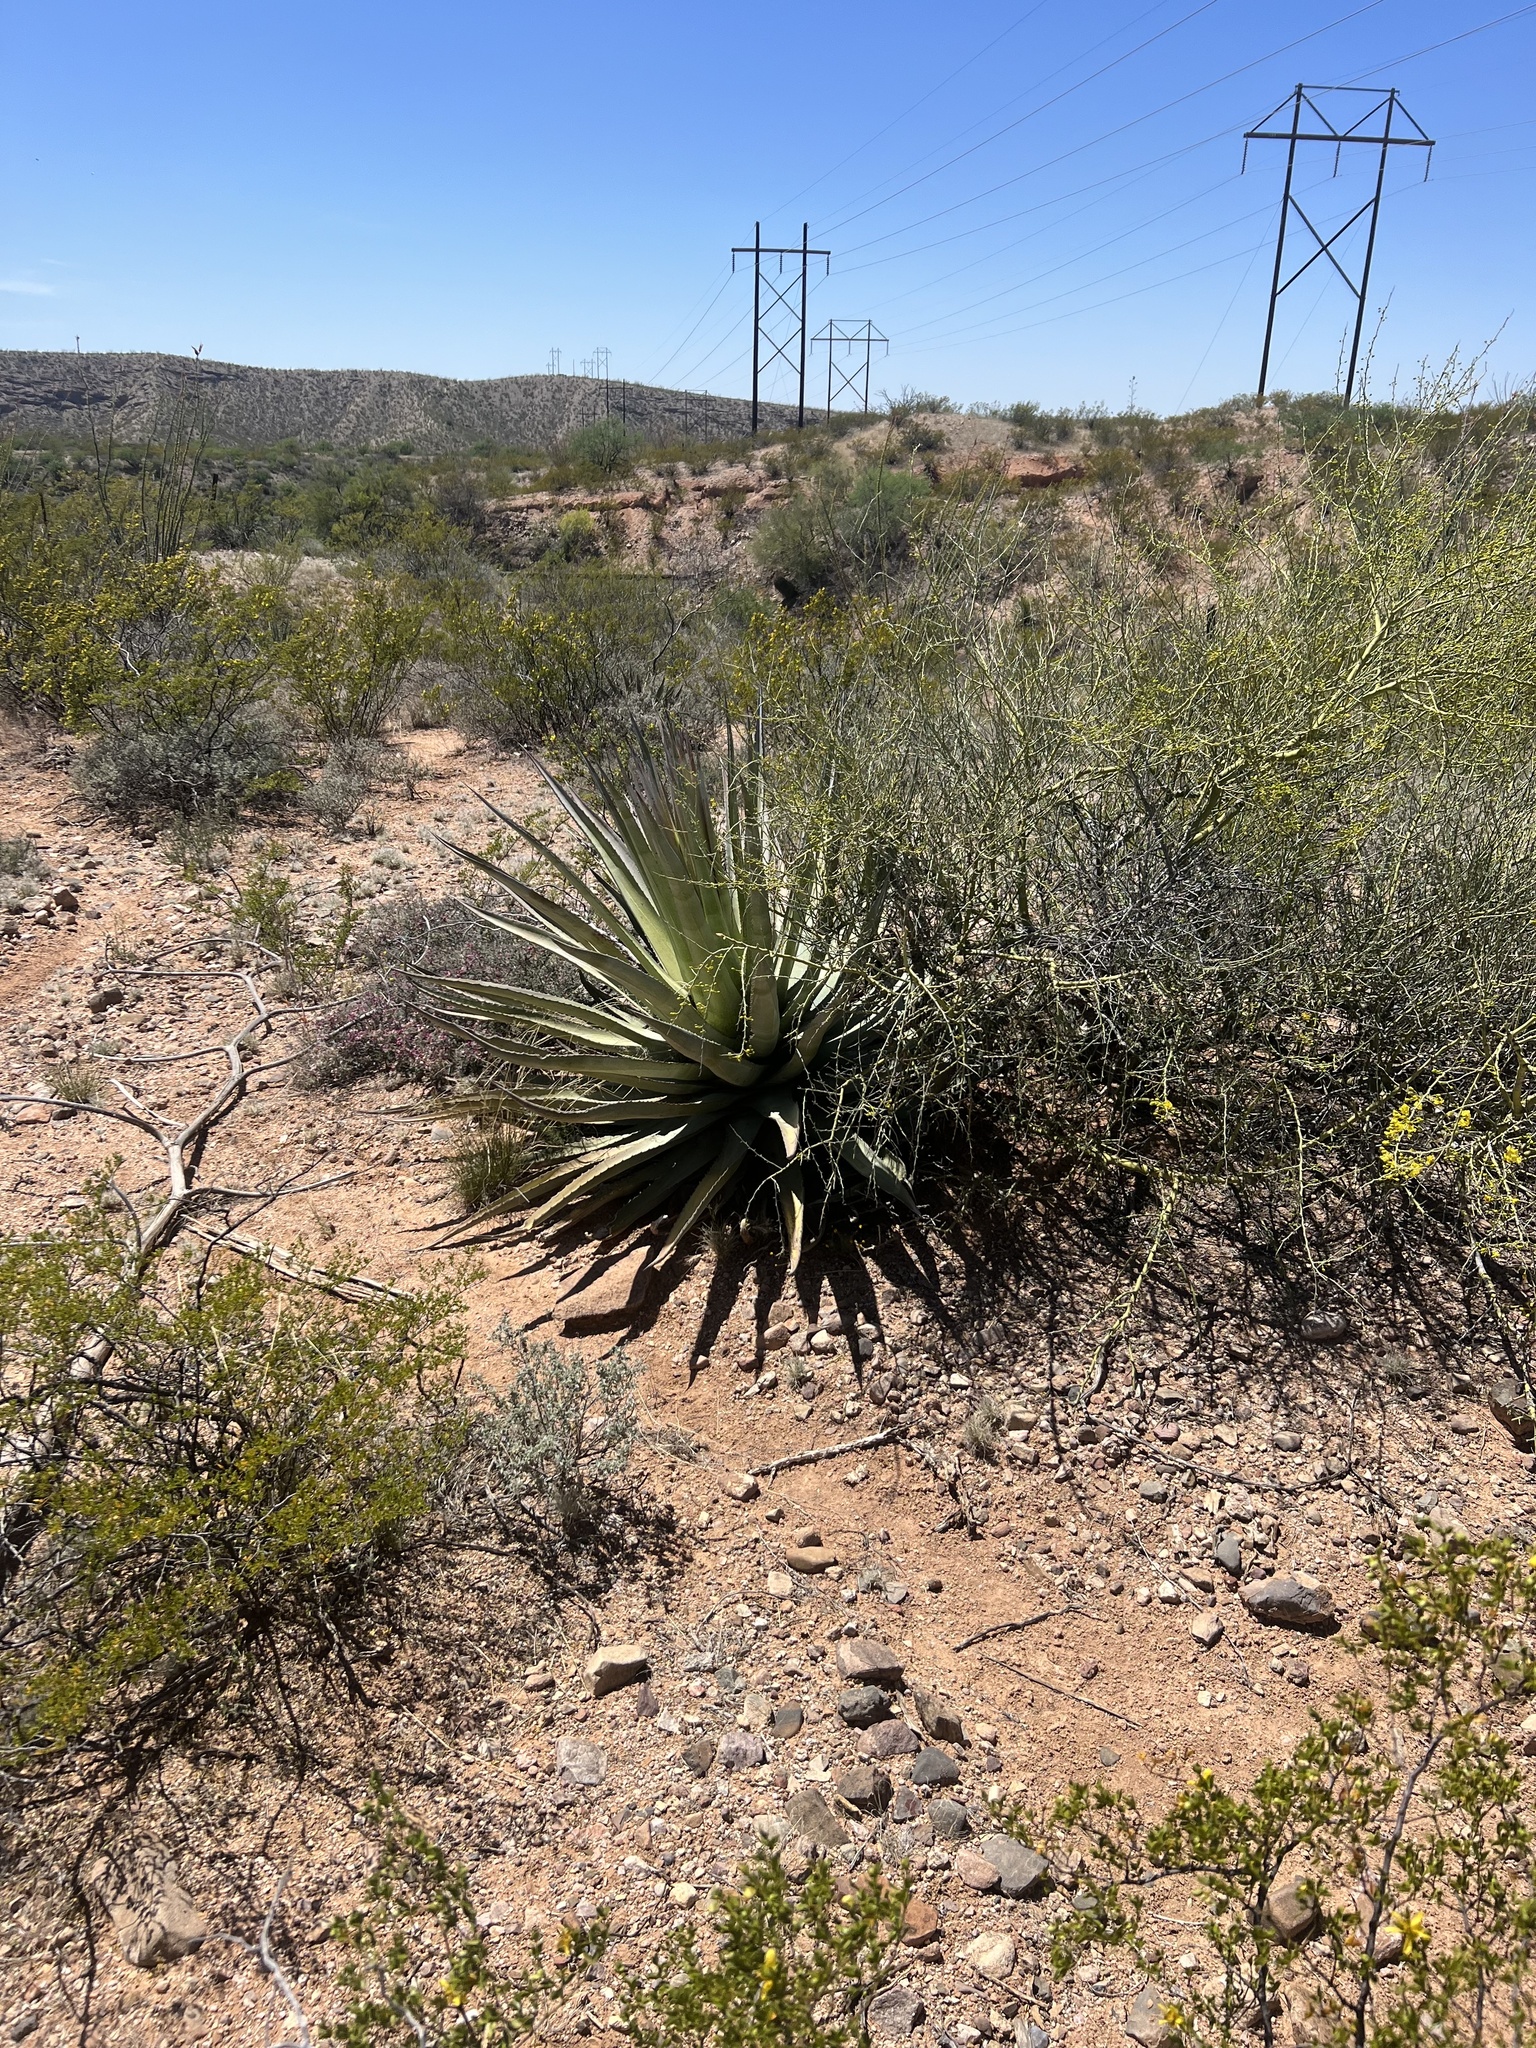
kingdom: Plantae
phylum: Tracheophyta
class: Liliopsida
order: Asparagales
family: Asparagaceae
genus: Agave
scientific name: Agave palmeri
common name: Palmer agave
